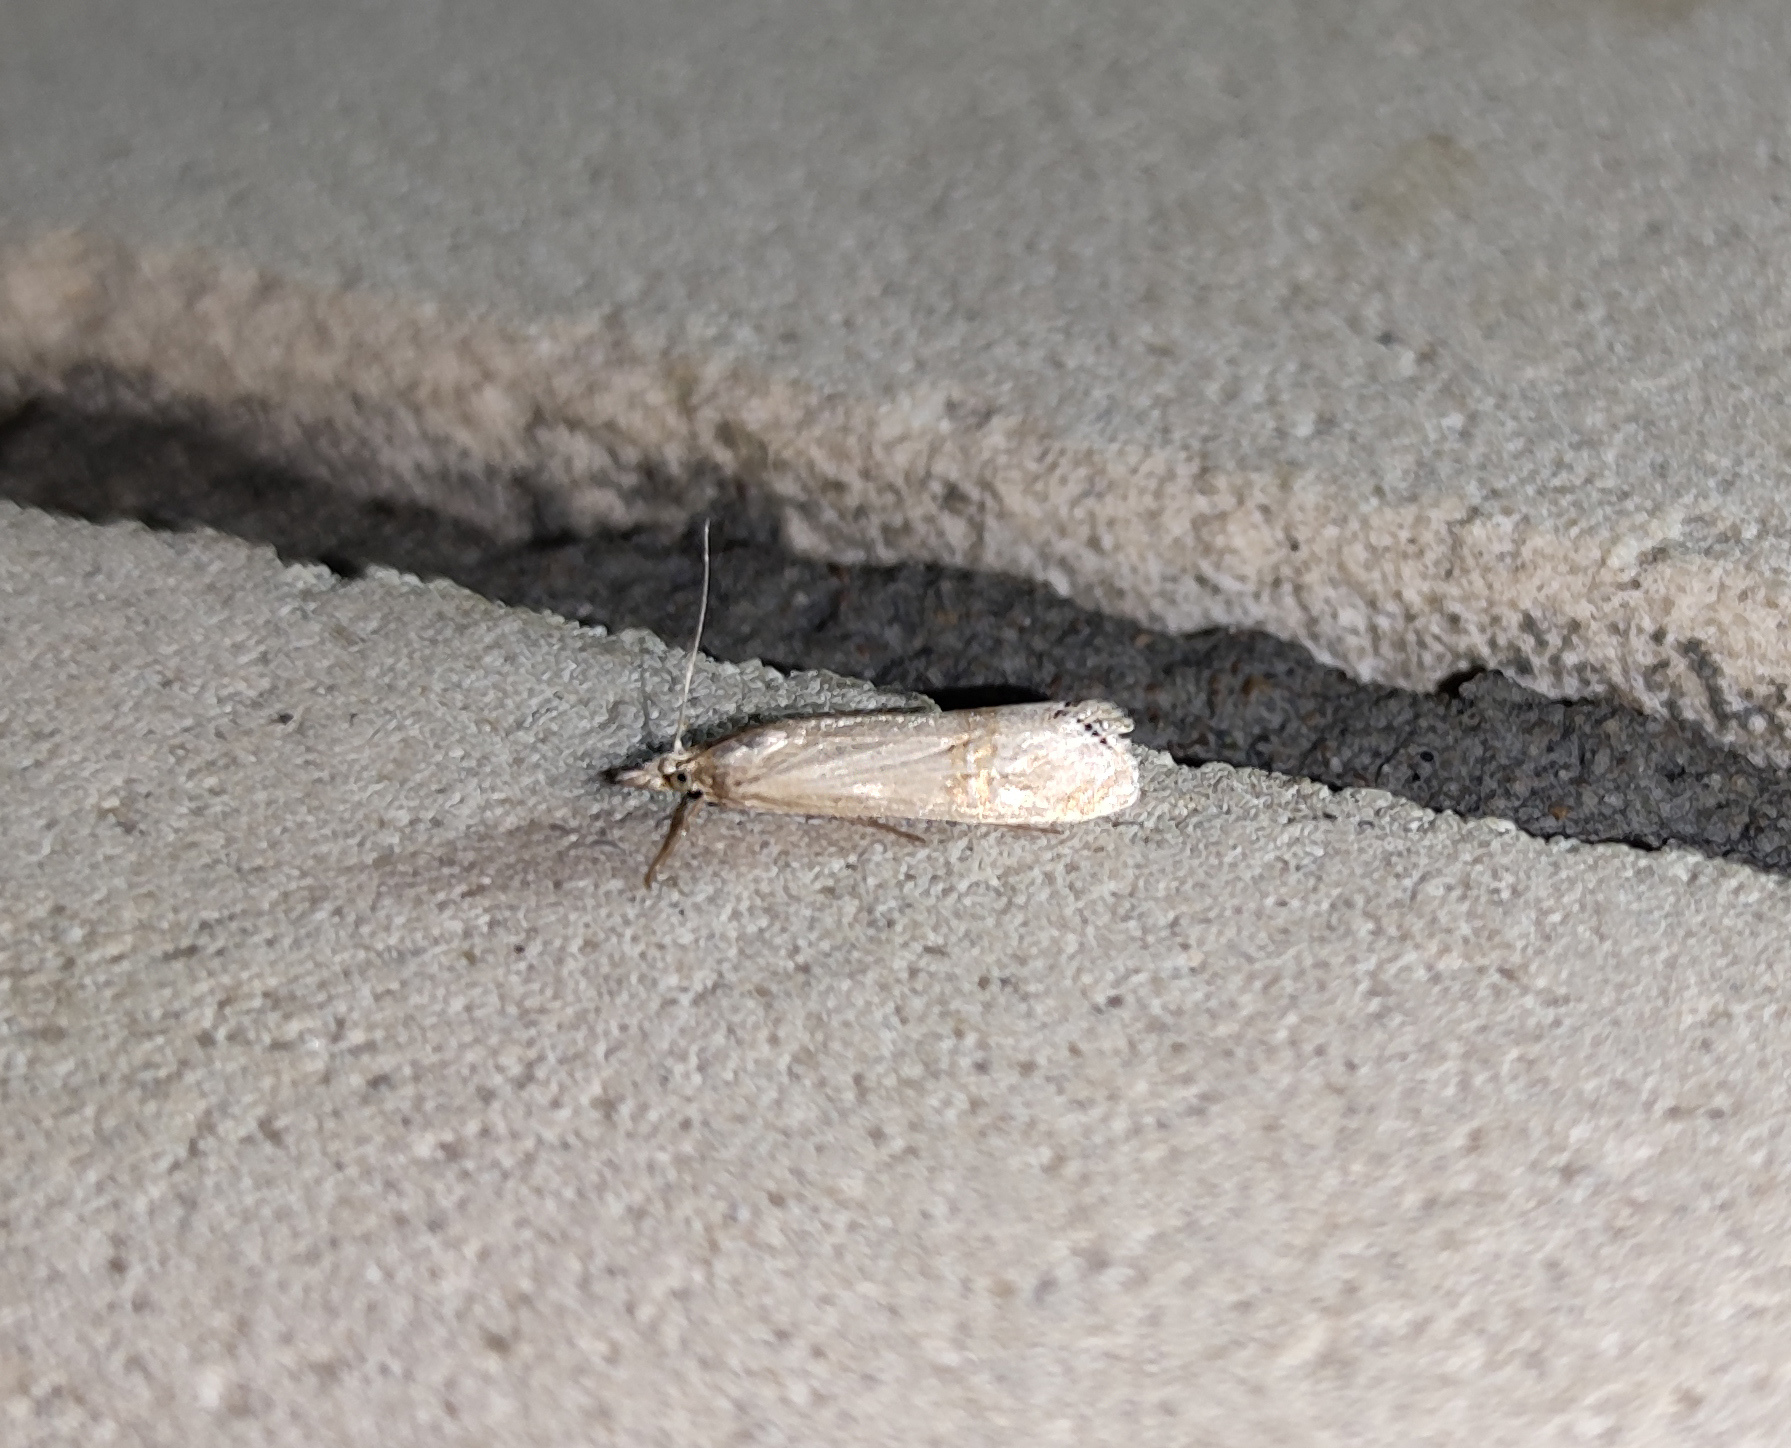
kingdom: Animalia
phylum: Arthropoda
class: Insecta
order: Lepidoptera
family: Crambidae
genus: Euchromius
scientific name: Euchromius ocellea
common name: Necklace veneer moth
